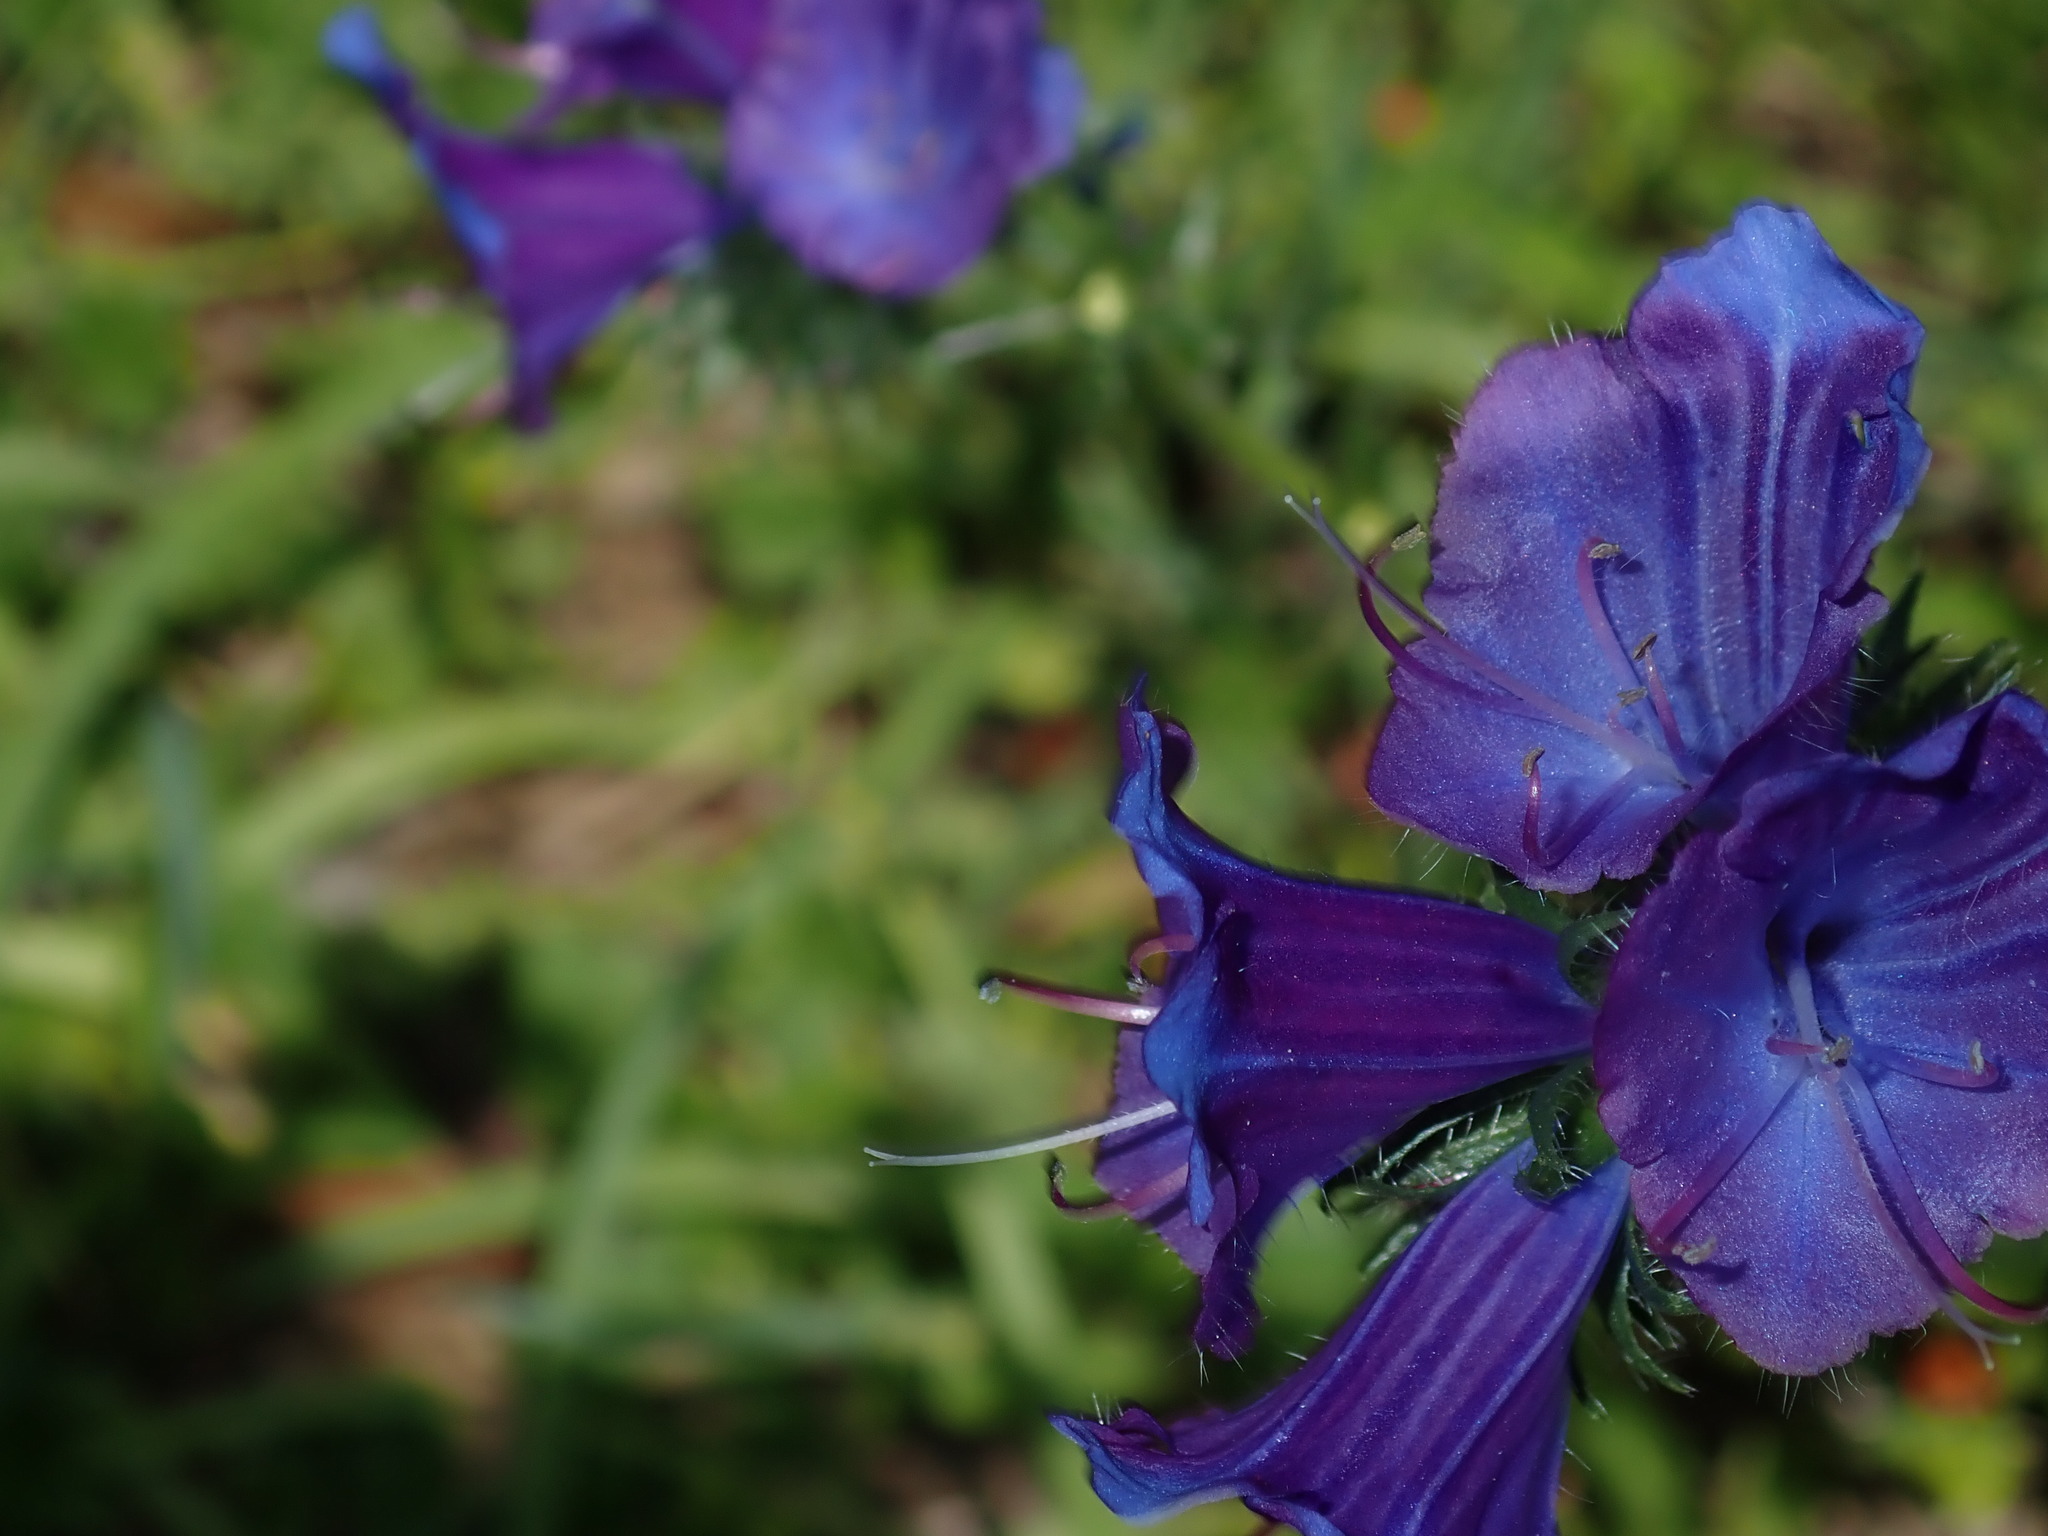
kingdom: Plantae
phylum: Tracheophyta
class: Magnoliopsida
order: Boraginales
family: Boraginaceae
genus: Echium
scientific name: Echium plantagineum
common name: Purple viper's-bugloss
